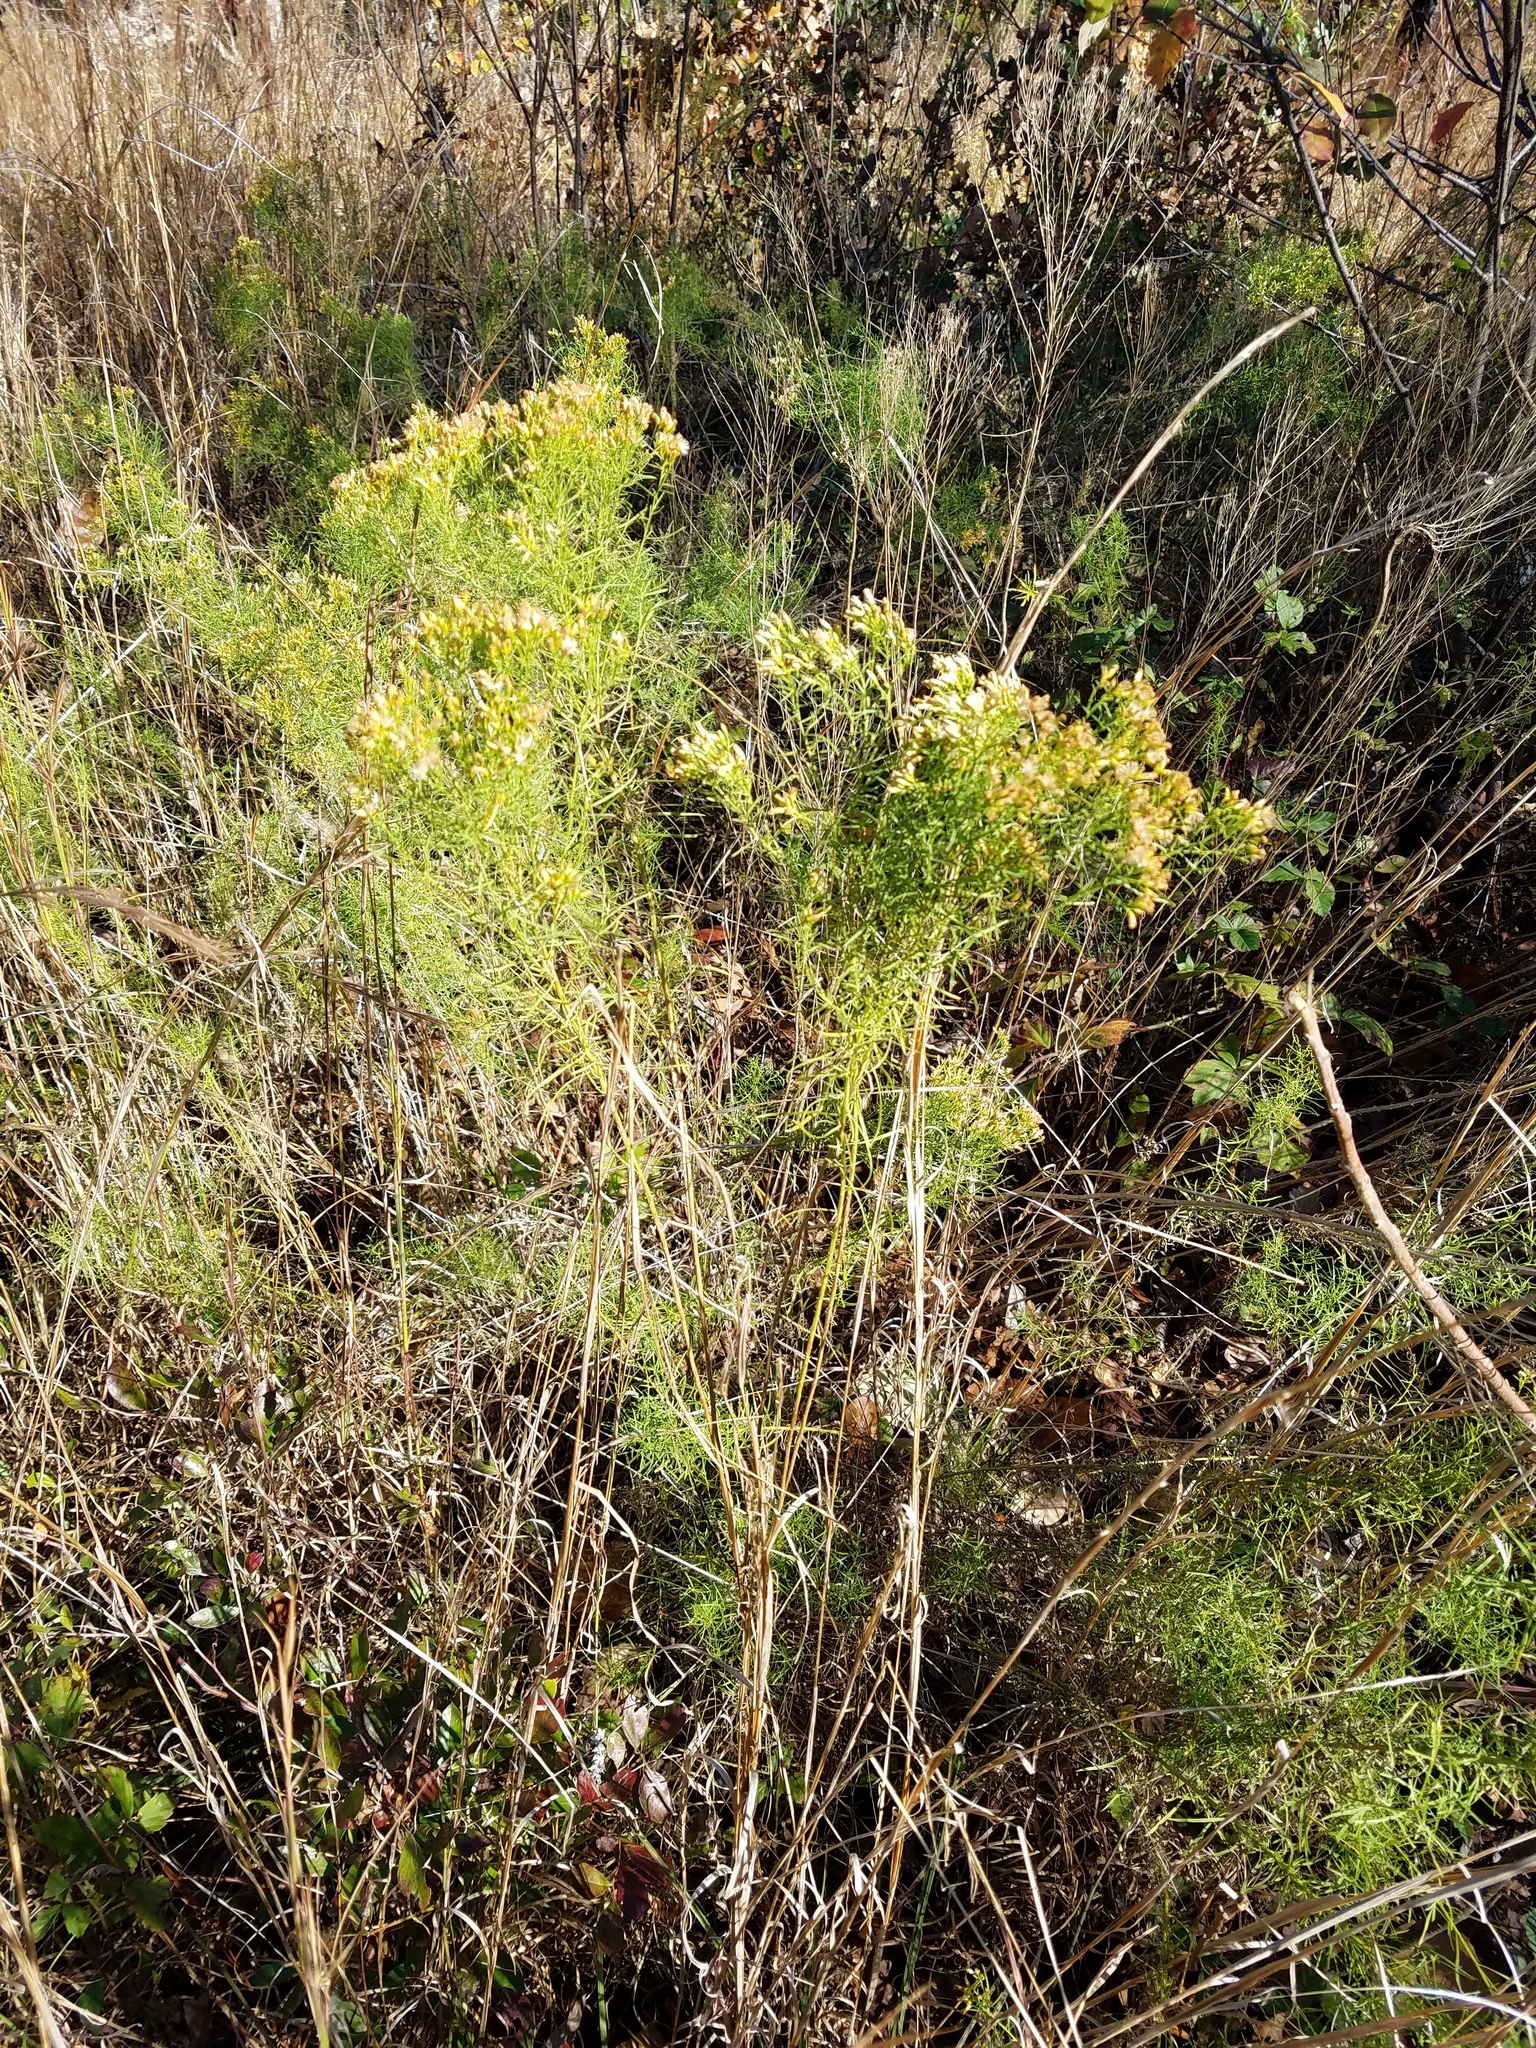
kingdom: Plantae
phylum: Tracheophyta
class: Magnoliopsida
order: Asterales
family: Asteraceae
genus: Euthamia
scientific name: Euthamia caroliniana
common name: Coastal plain goldentop
